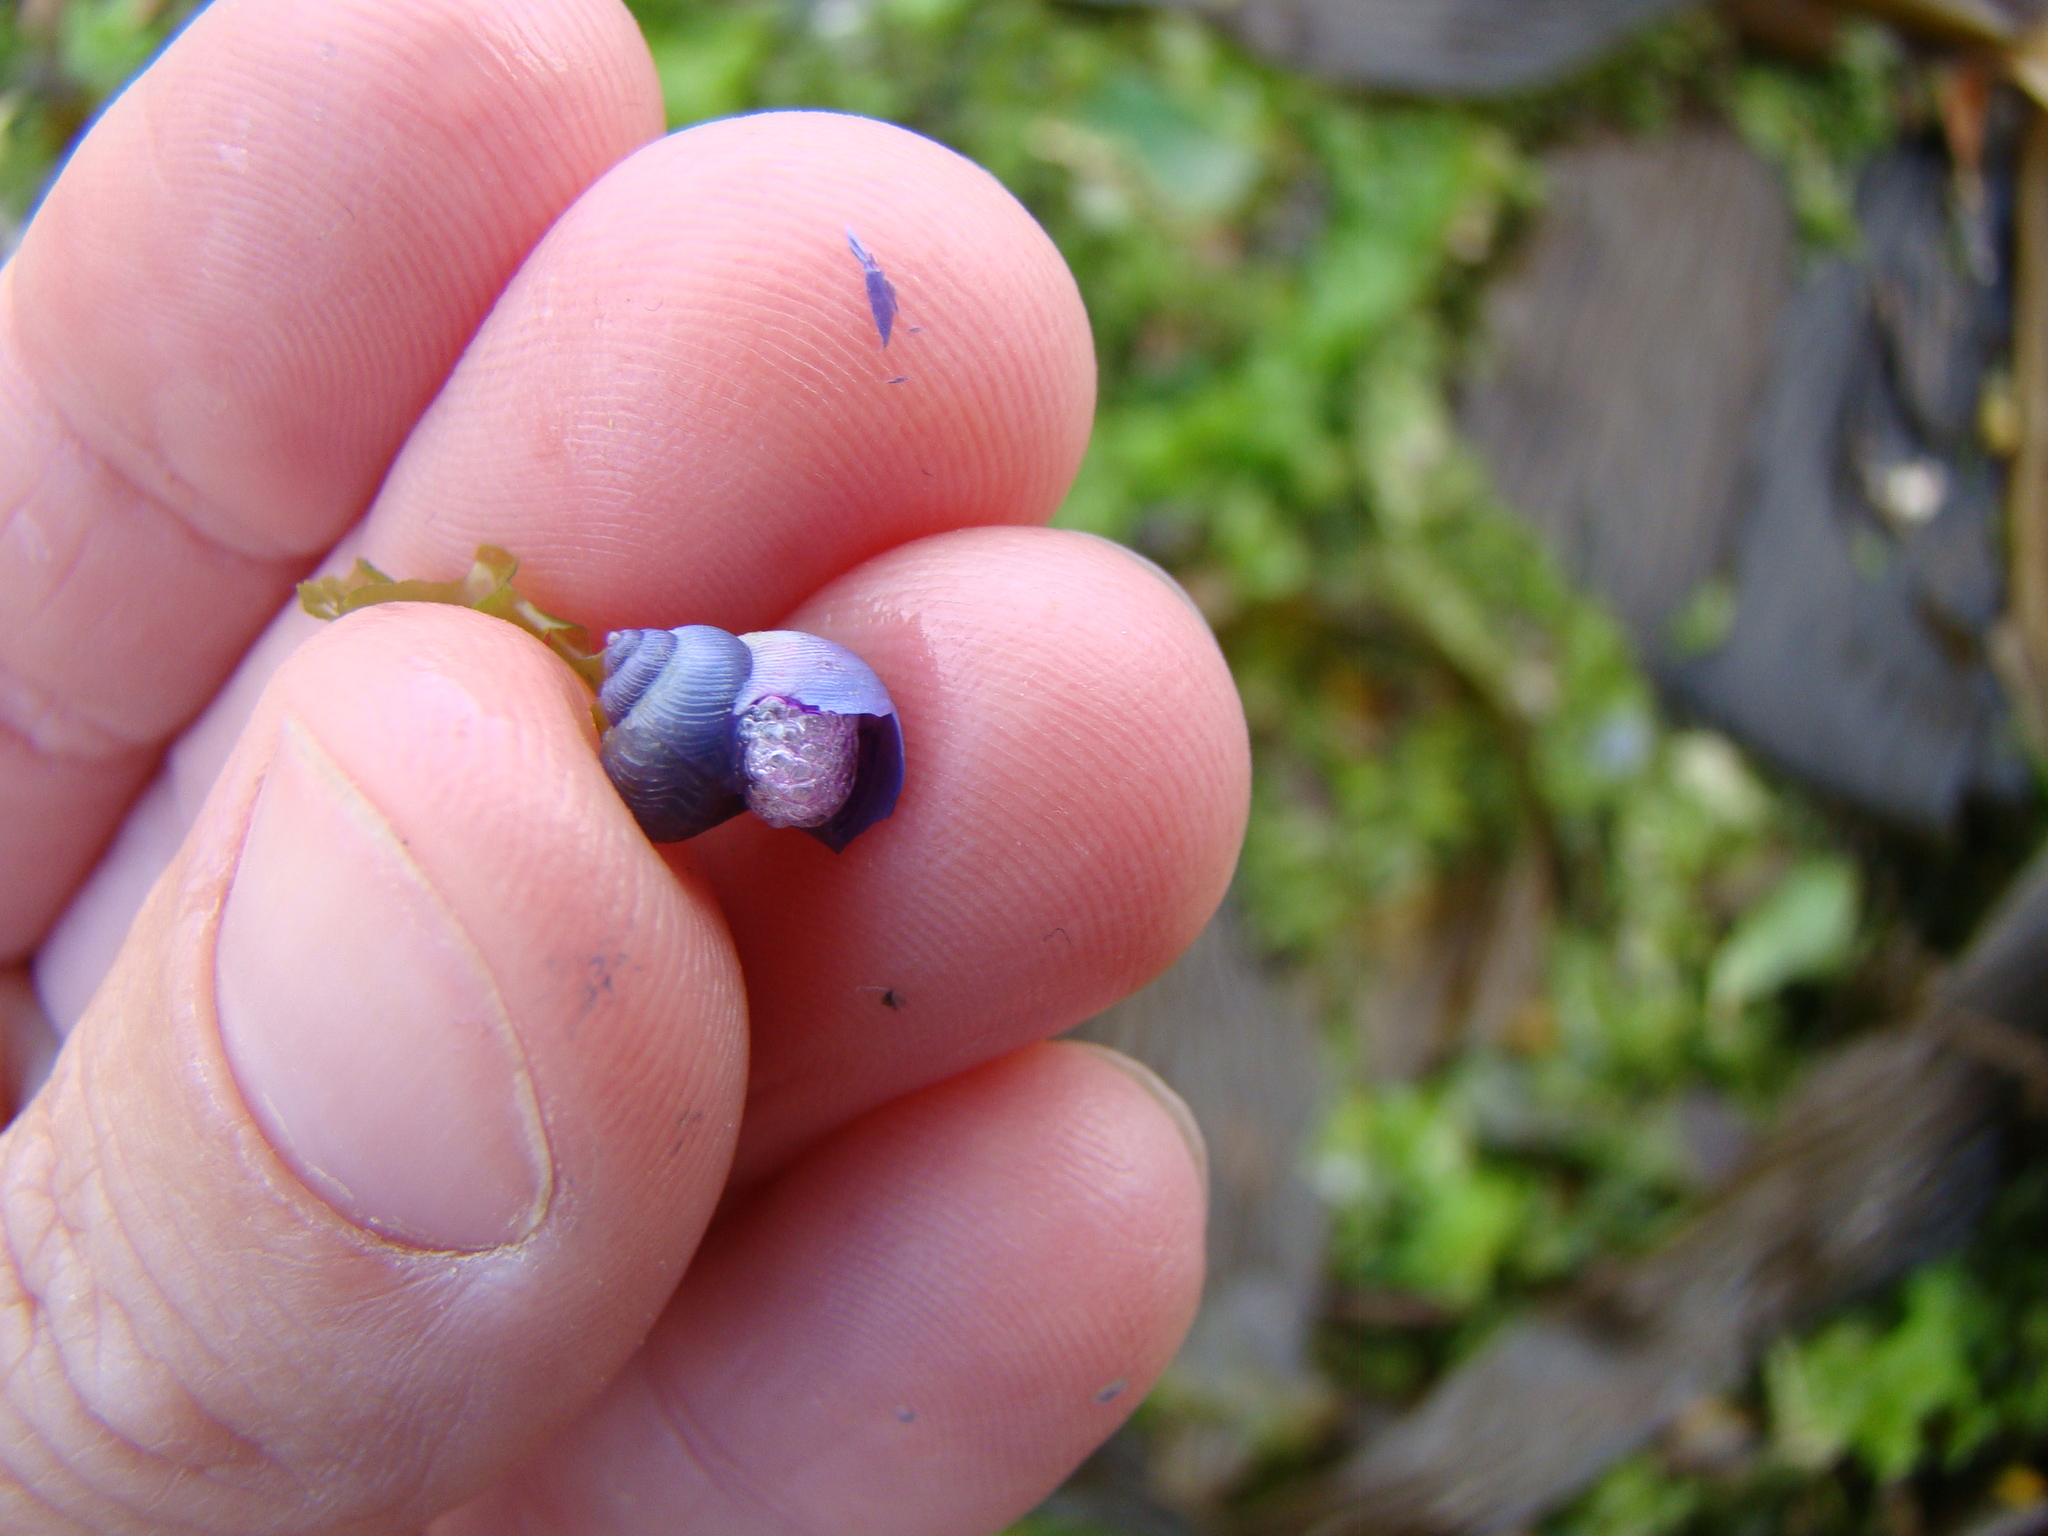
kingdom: Animalia
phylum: Mollusca
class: Gastropoda
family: Epitoniidae
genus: Janthina
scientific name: Janthina exigua
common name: Dwarf janthina
